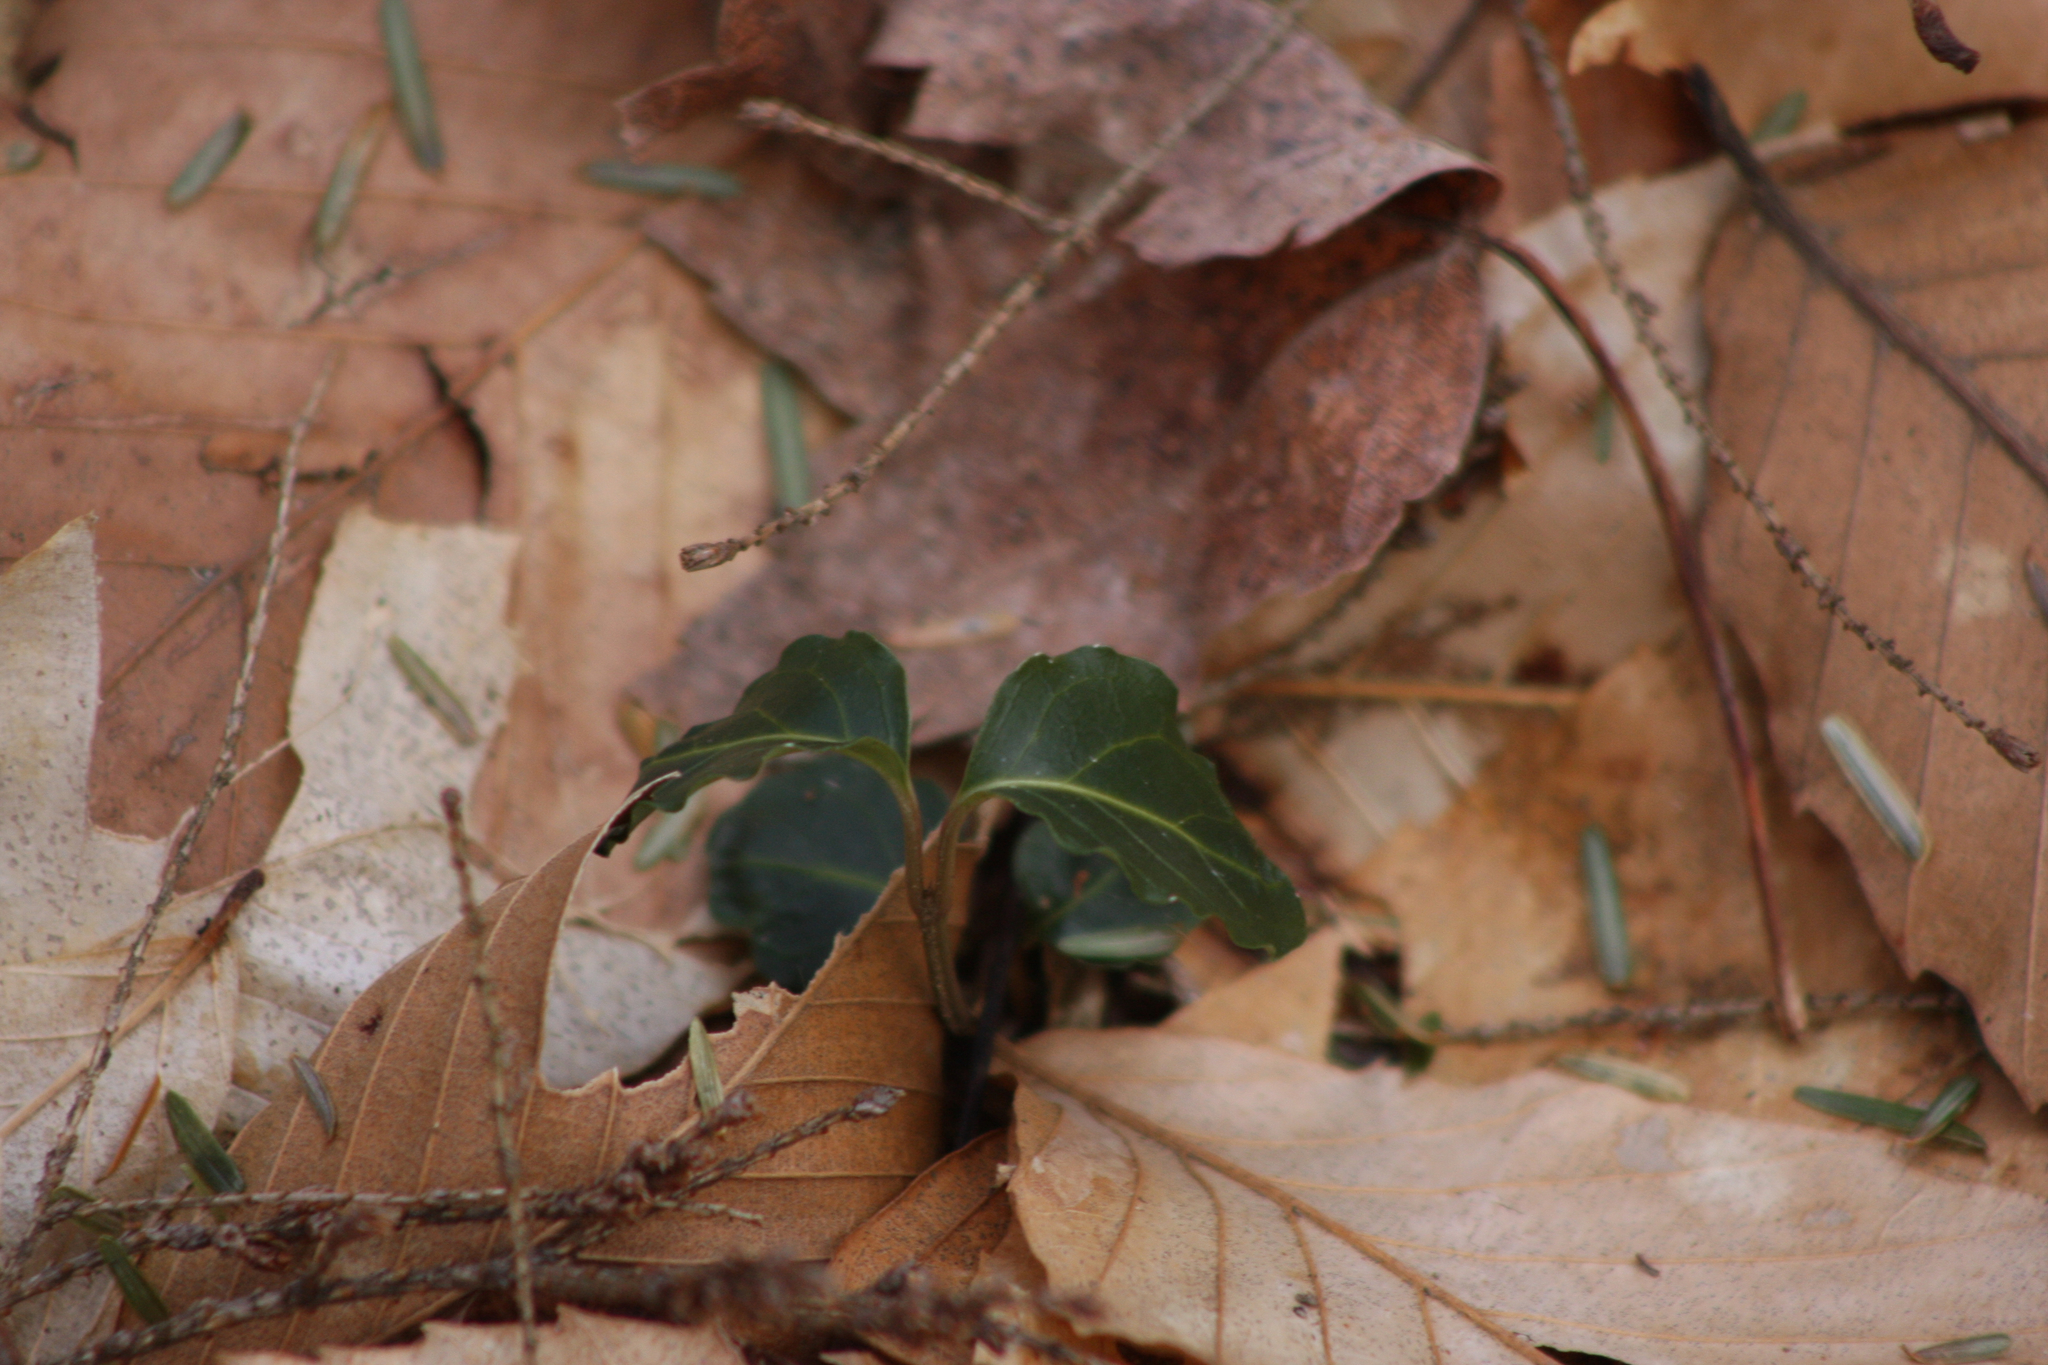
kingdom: Plantae
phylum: Tracheophyta
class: Magnoliopsida
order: Gentianales
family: Rubiaceae
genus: Mitchella
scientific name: Mitchella repens
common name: Partridge-berry
